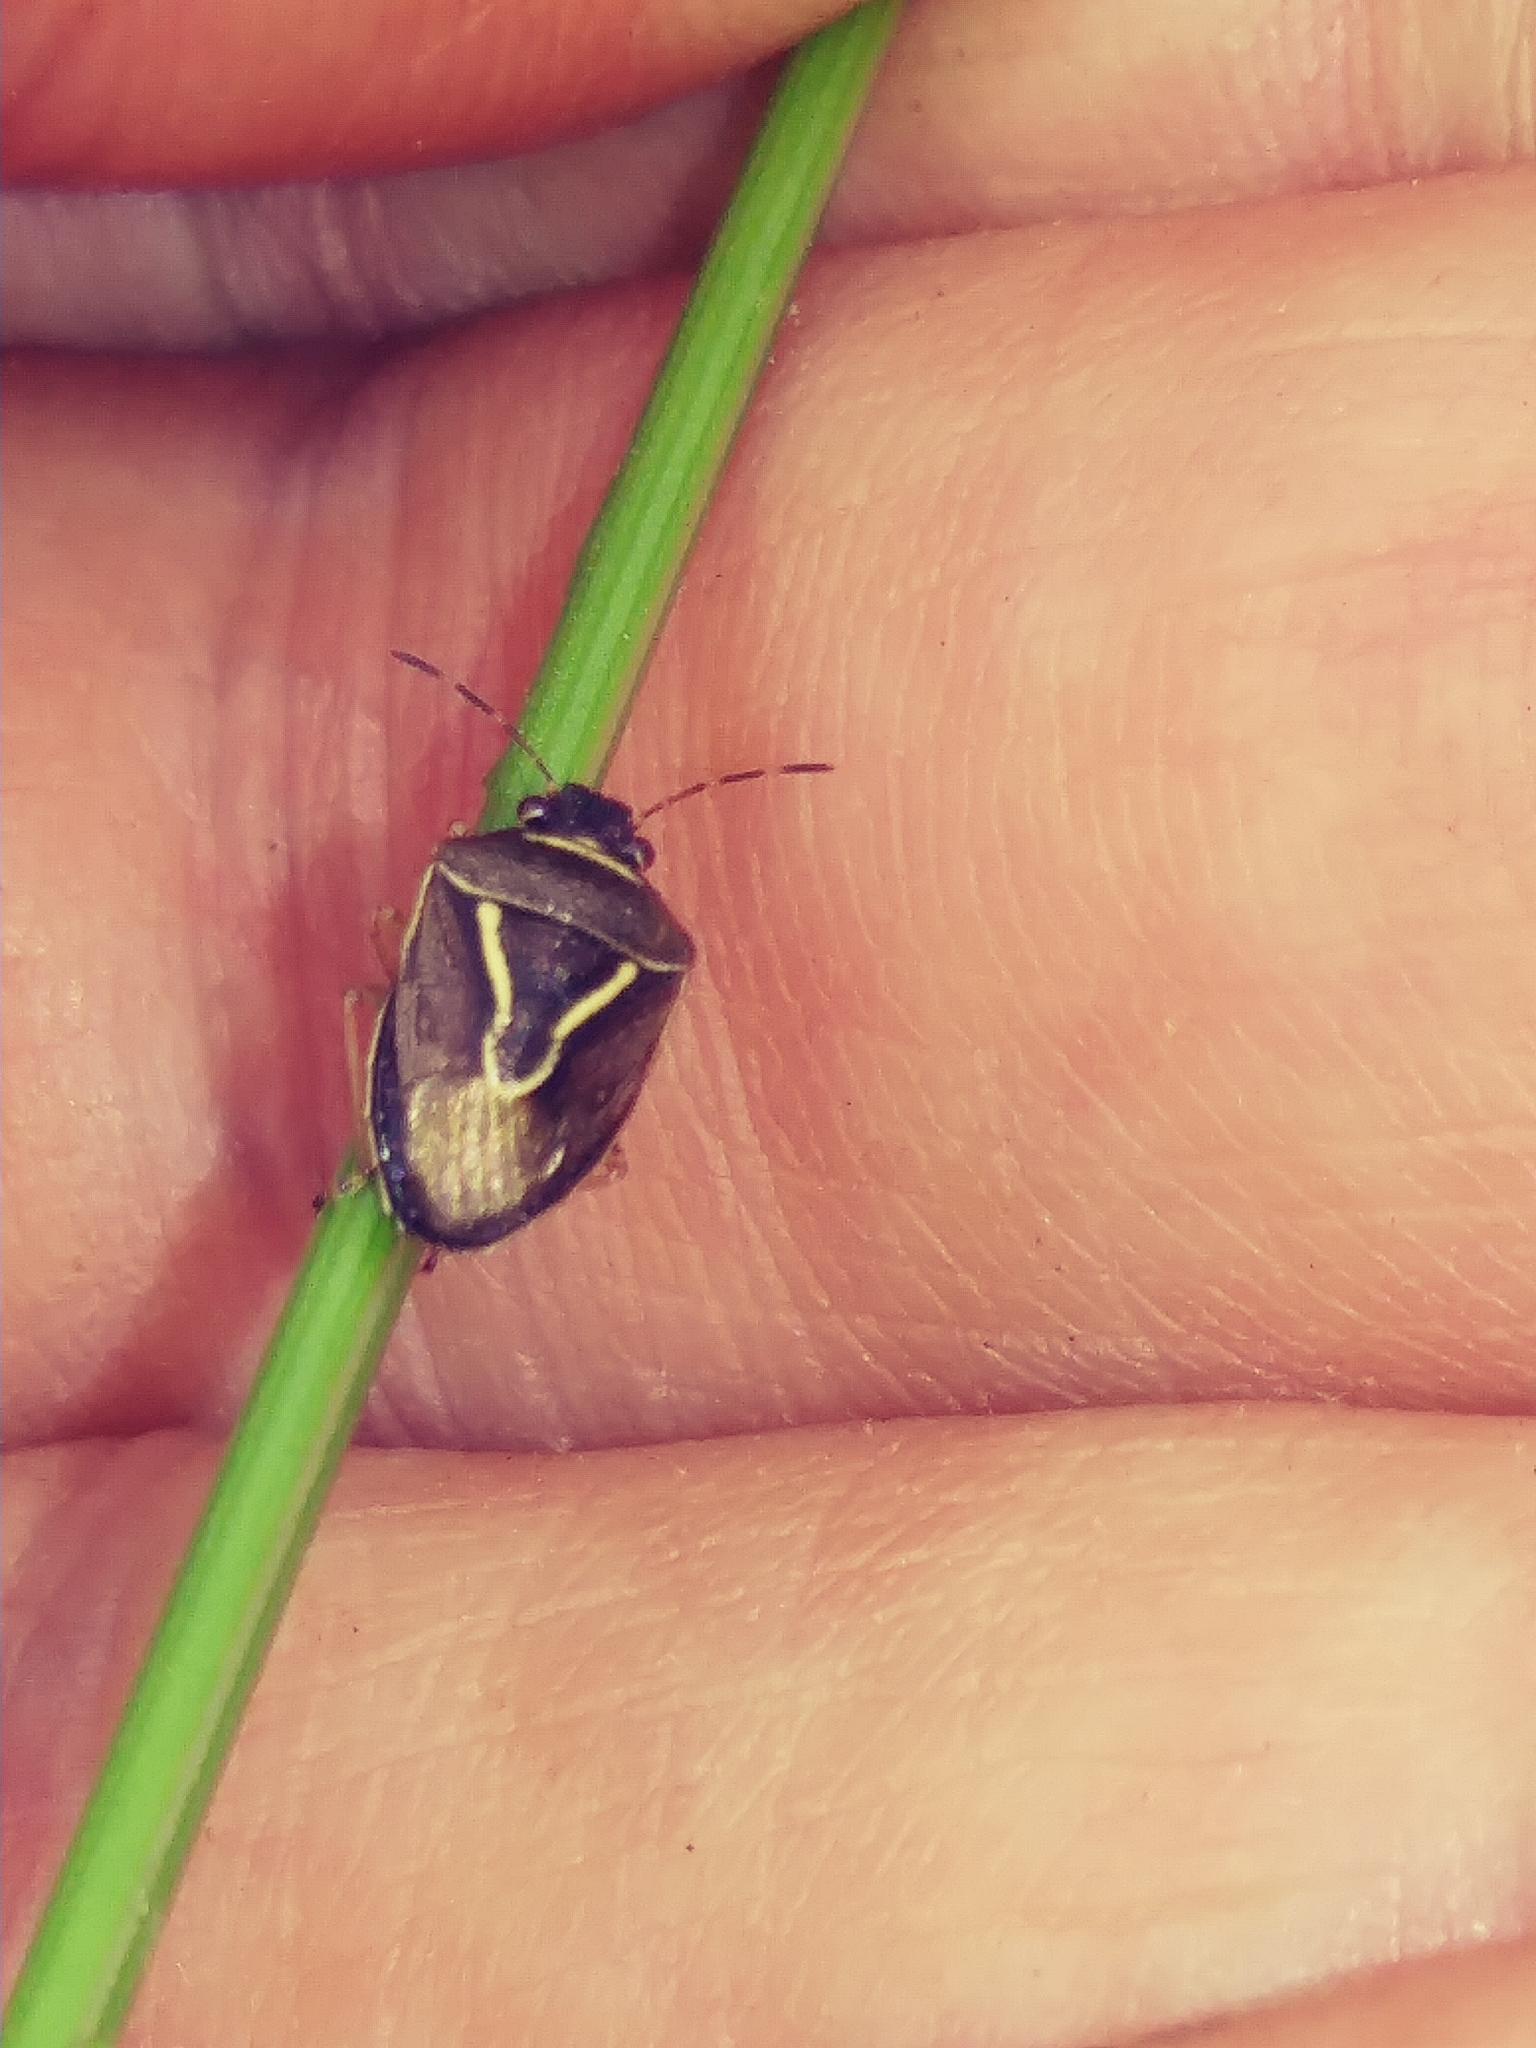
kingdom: Animalia
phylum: Arthropoda
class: Insecta
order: Hemiptera
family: Pentatomidae
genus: Mormidea
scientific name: Mormidea lugens
